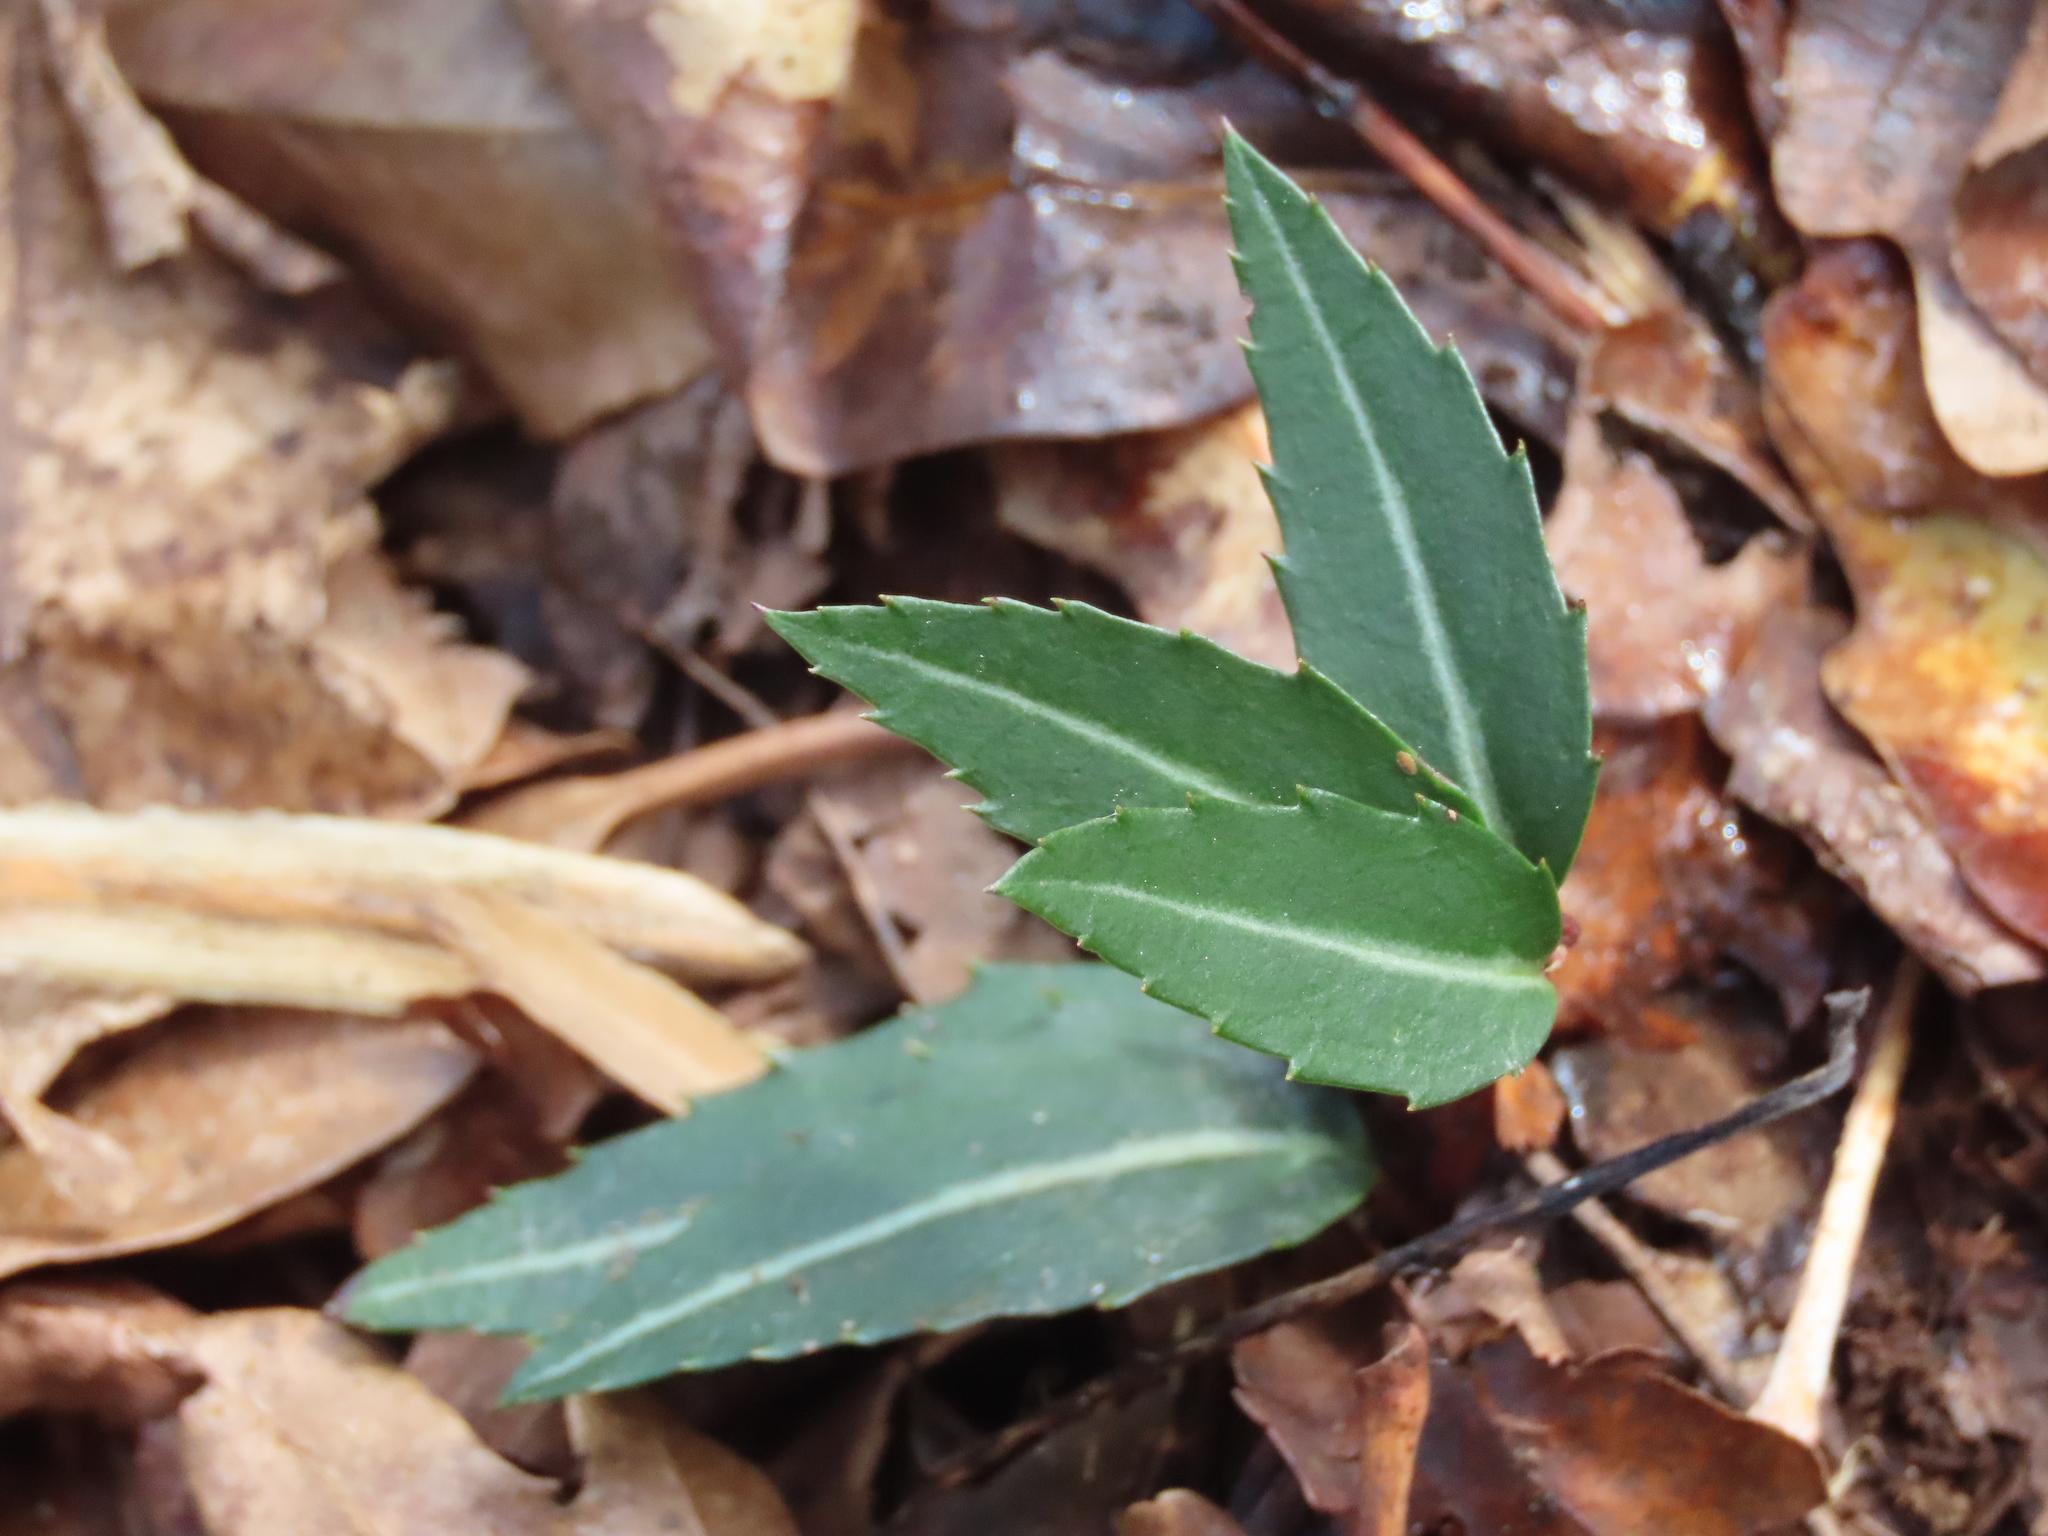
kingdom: Plantae
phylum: Tracheophyta
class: Magnoliopsida
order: Ericales
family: Ericaceae
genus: Chimaphila
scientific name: Chimaphila maculata
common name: Spotted pipsissewa
